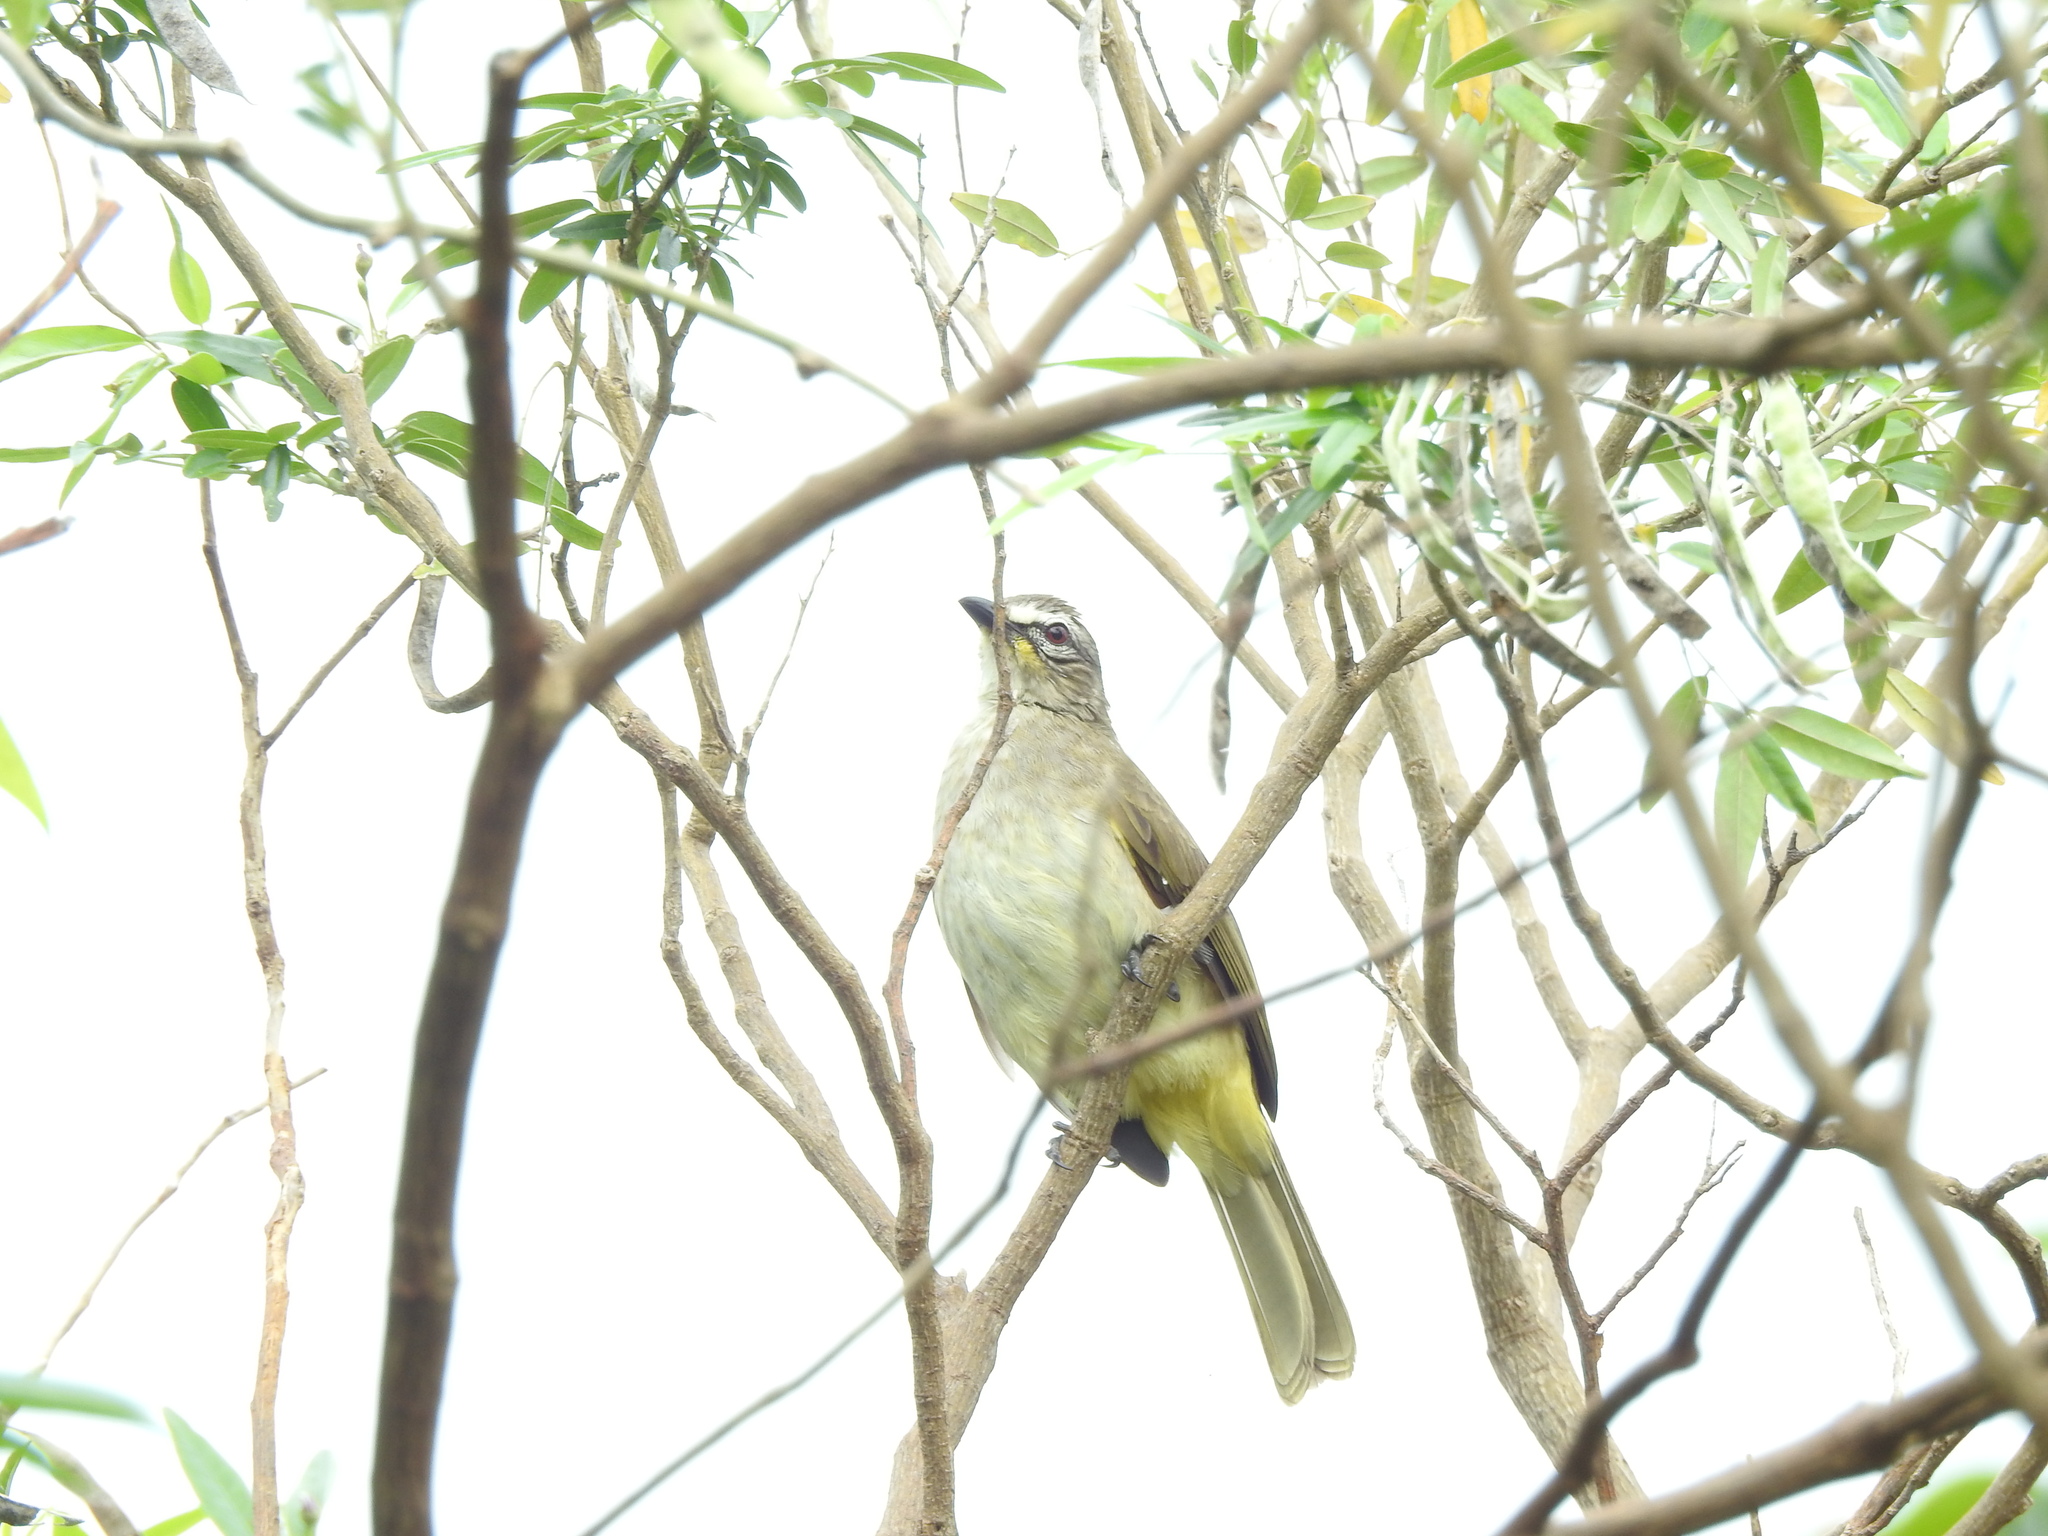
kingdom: Animalia
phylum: Chordata
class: Aves
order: Passeriformes
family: Pycnonotidae
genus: Pycnonotus
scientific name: Pycnonotus luteolus
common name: White-browed bulbul
